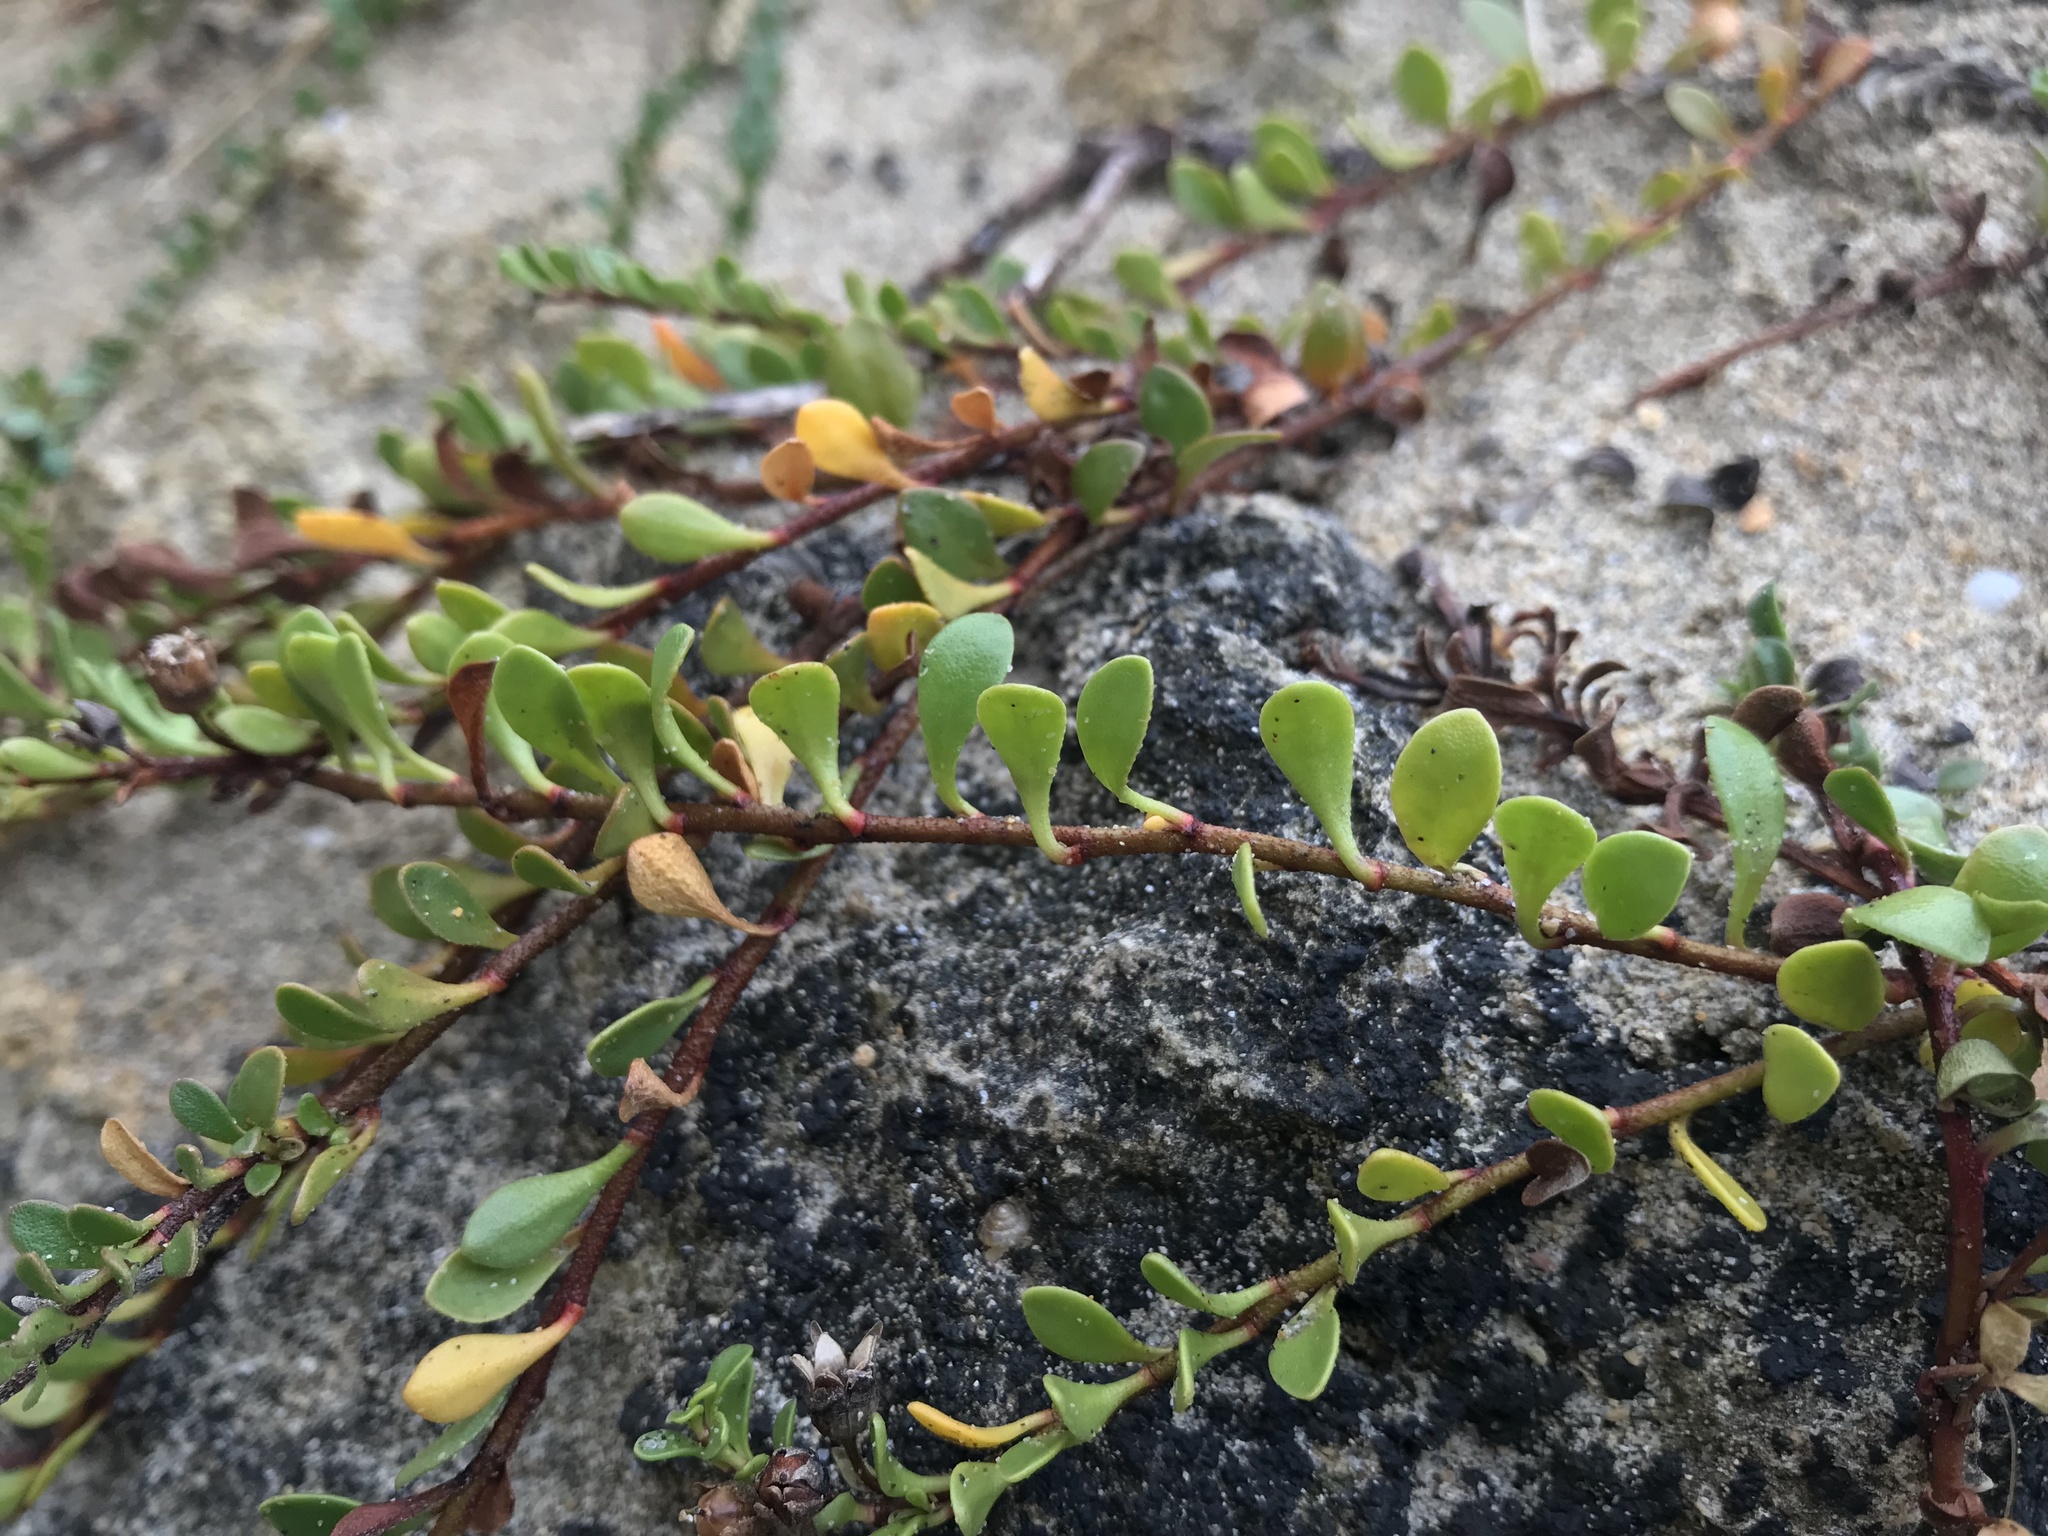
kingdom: Plantae
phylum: Tracheophyta
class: Magnoliopsida
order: Ericales
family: Primulaceae
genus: Samolus
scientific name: Samolus repens
